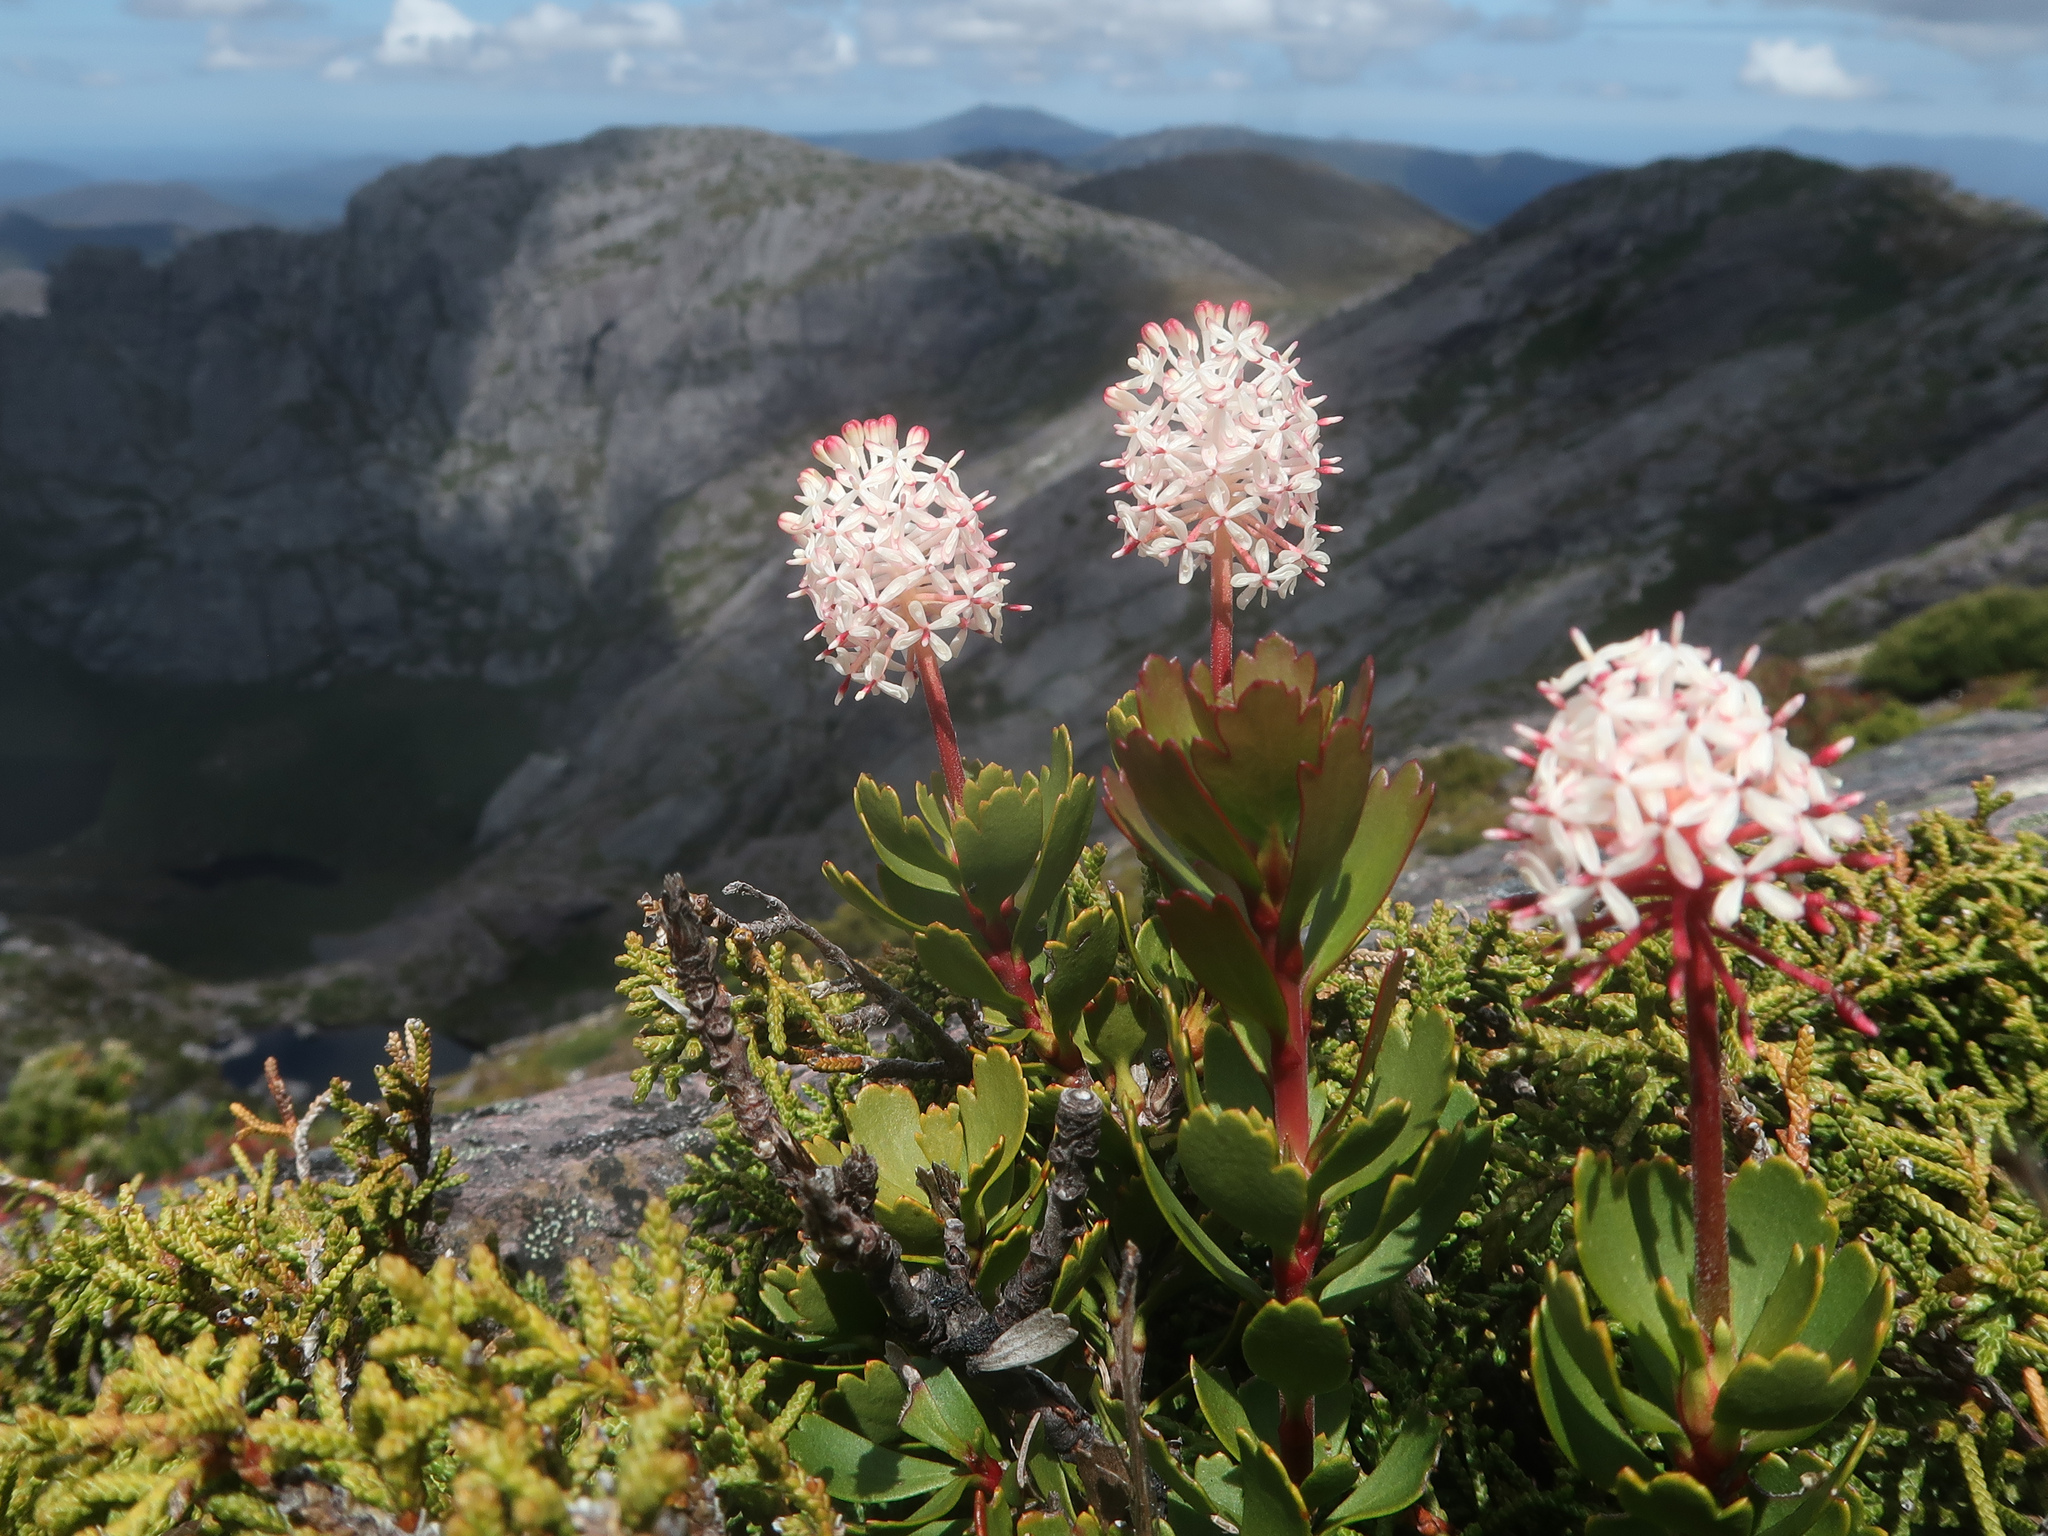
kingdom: Plantae
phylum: Tracheophyta
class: Magnoliopsida
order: Proteales
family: Proteaceae
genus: Bellendena
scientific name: Bellendena montana
